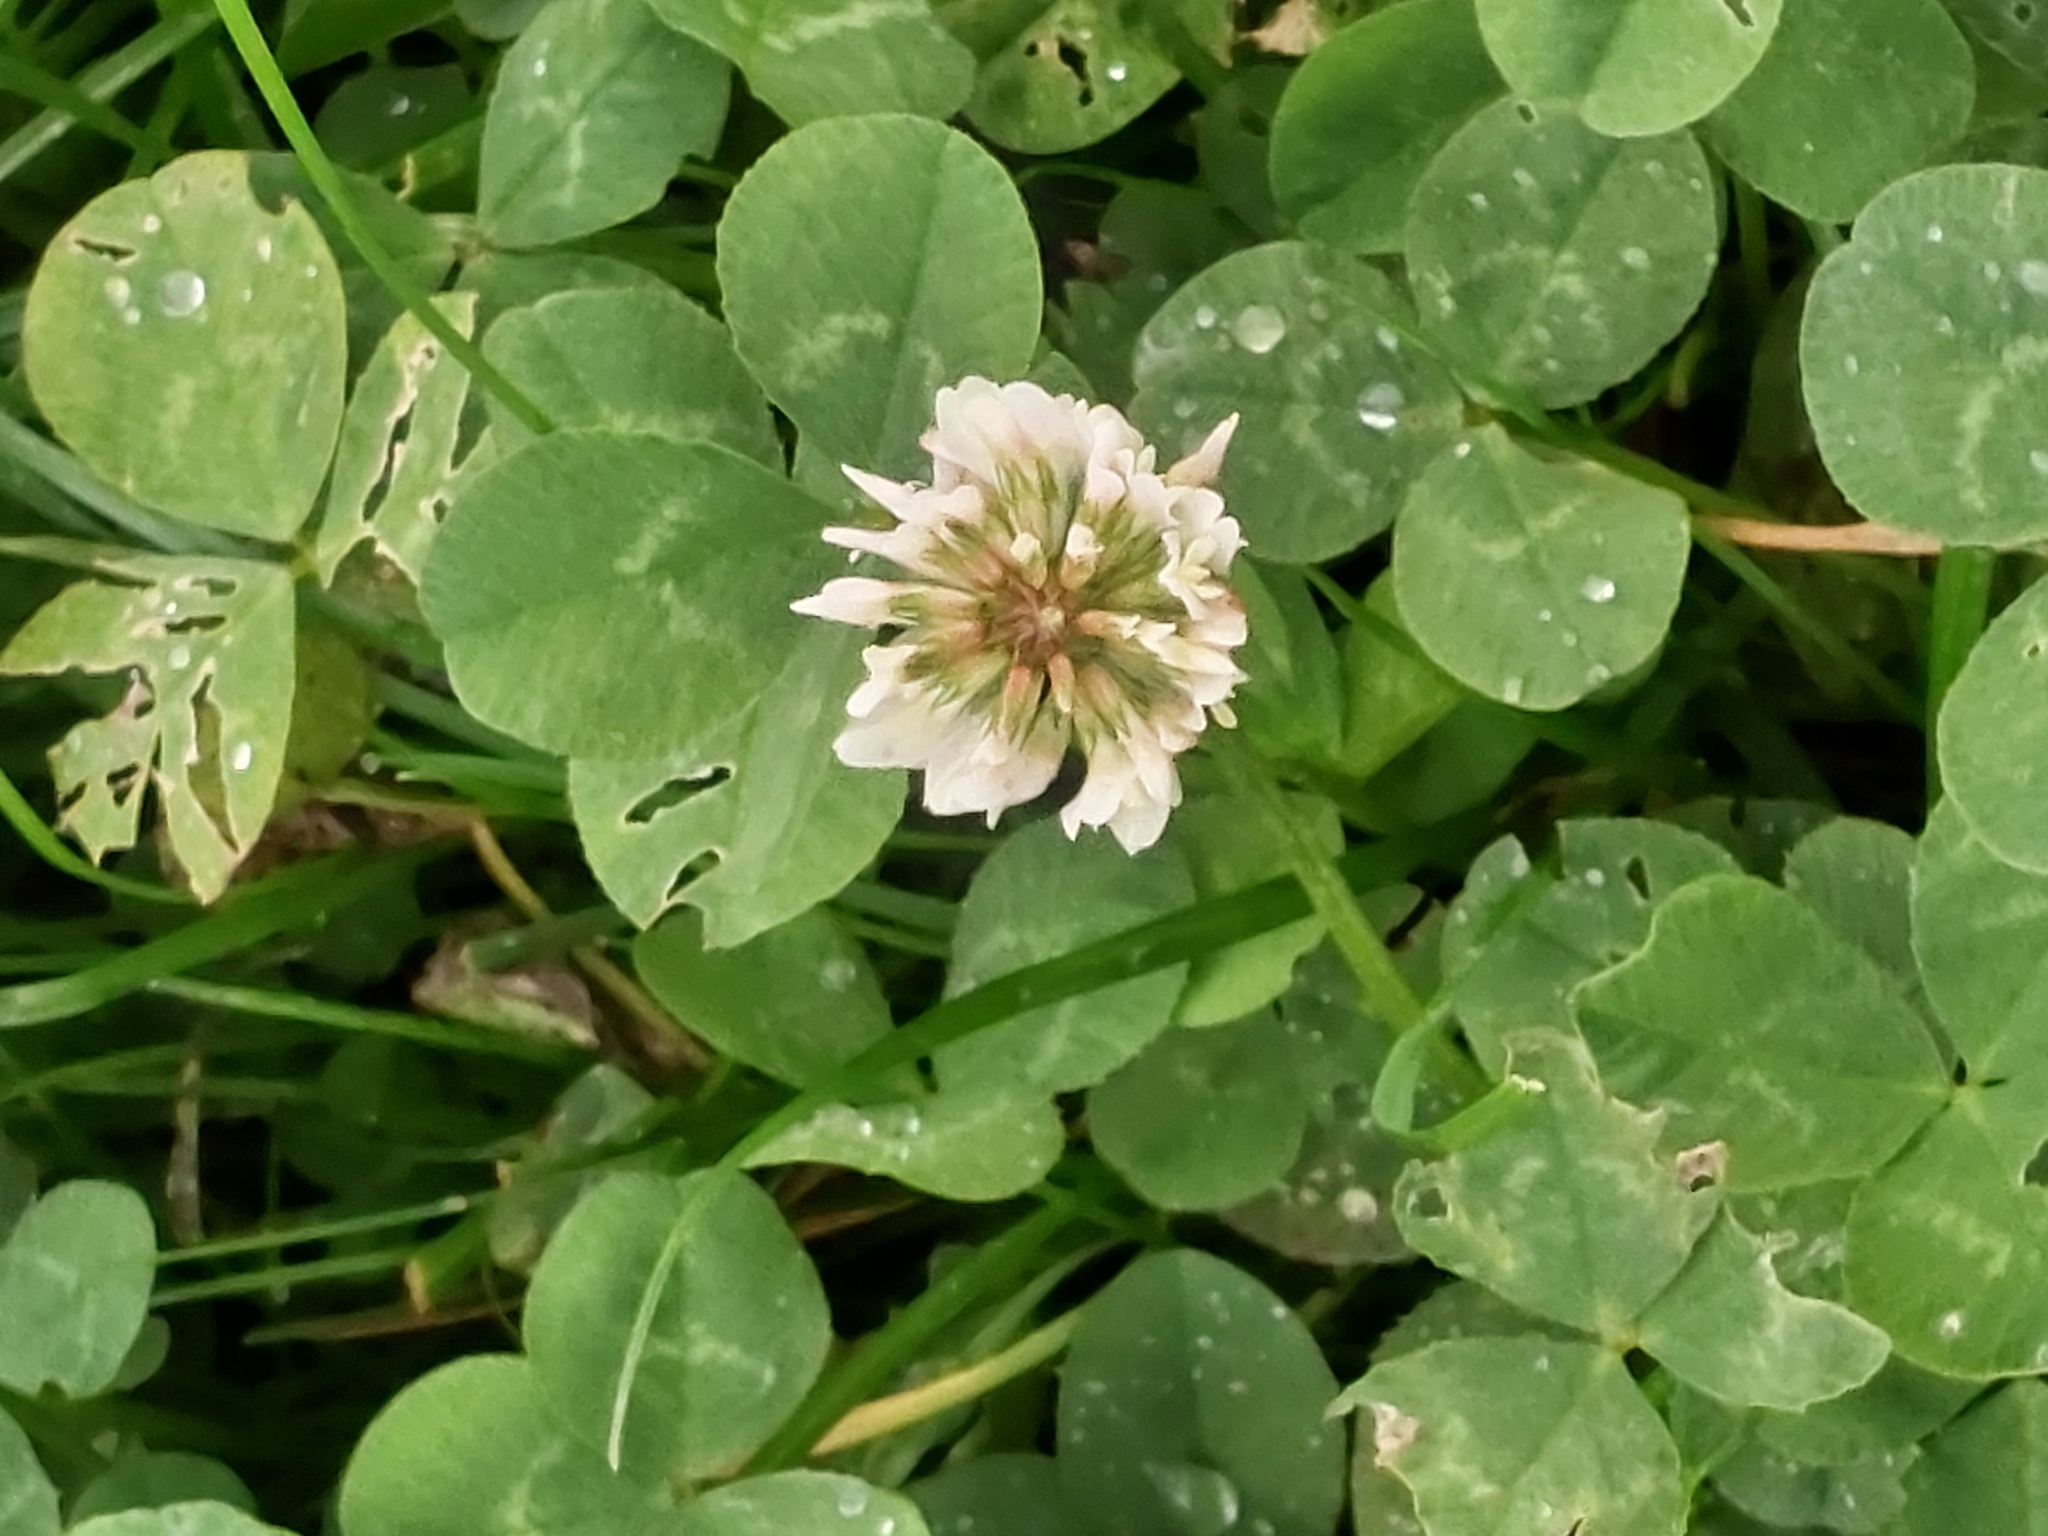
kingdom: Plantae
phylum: Tracheophyta
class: Magnoliopsida
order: Fabales
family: Fabaceae
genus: Trifolium
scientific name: Trifolium repens
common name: White clover
